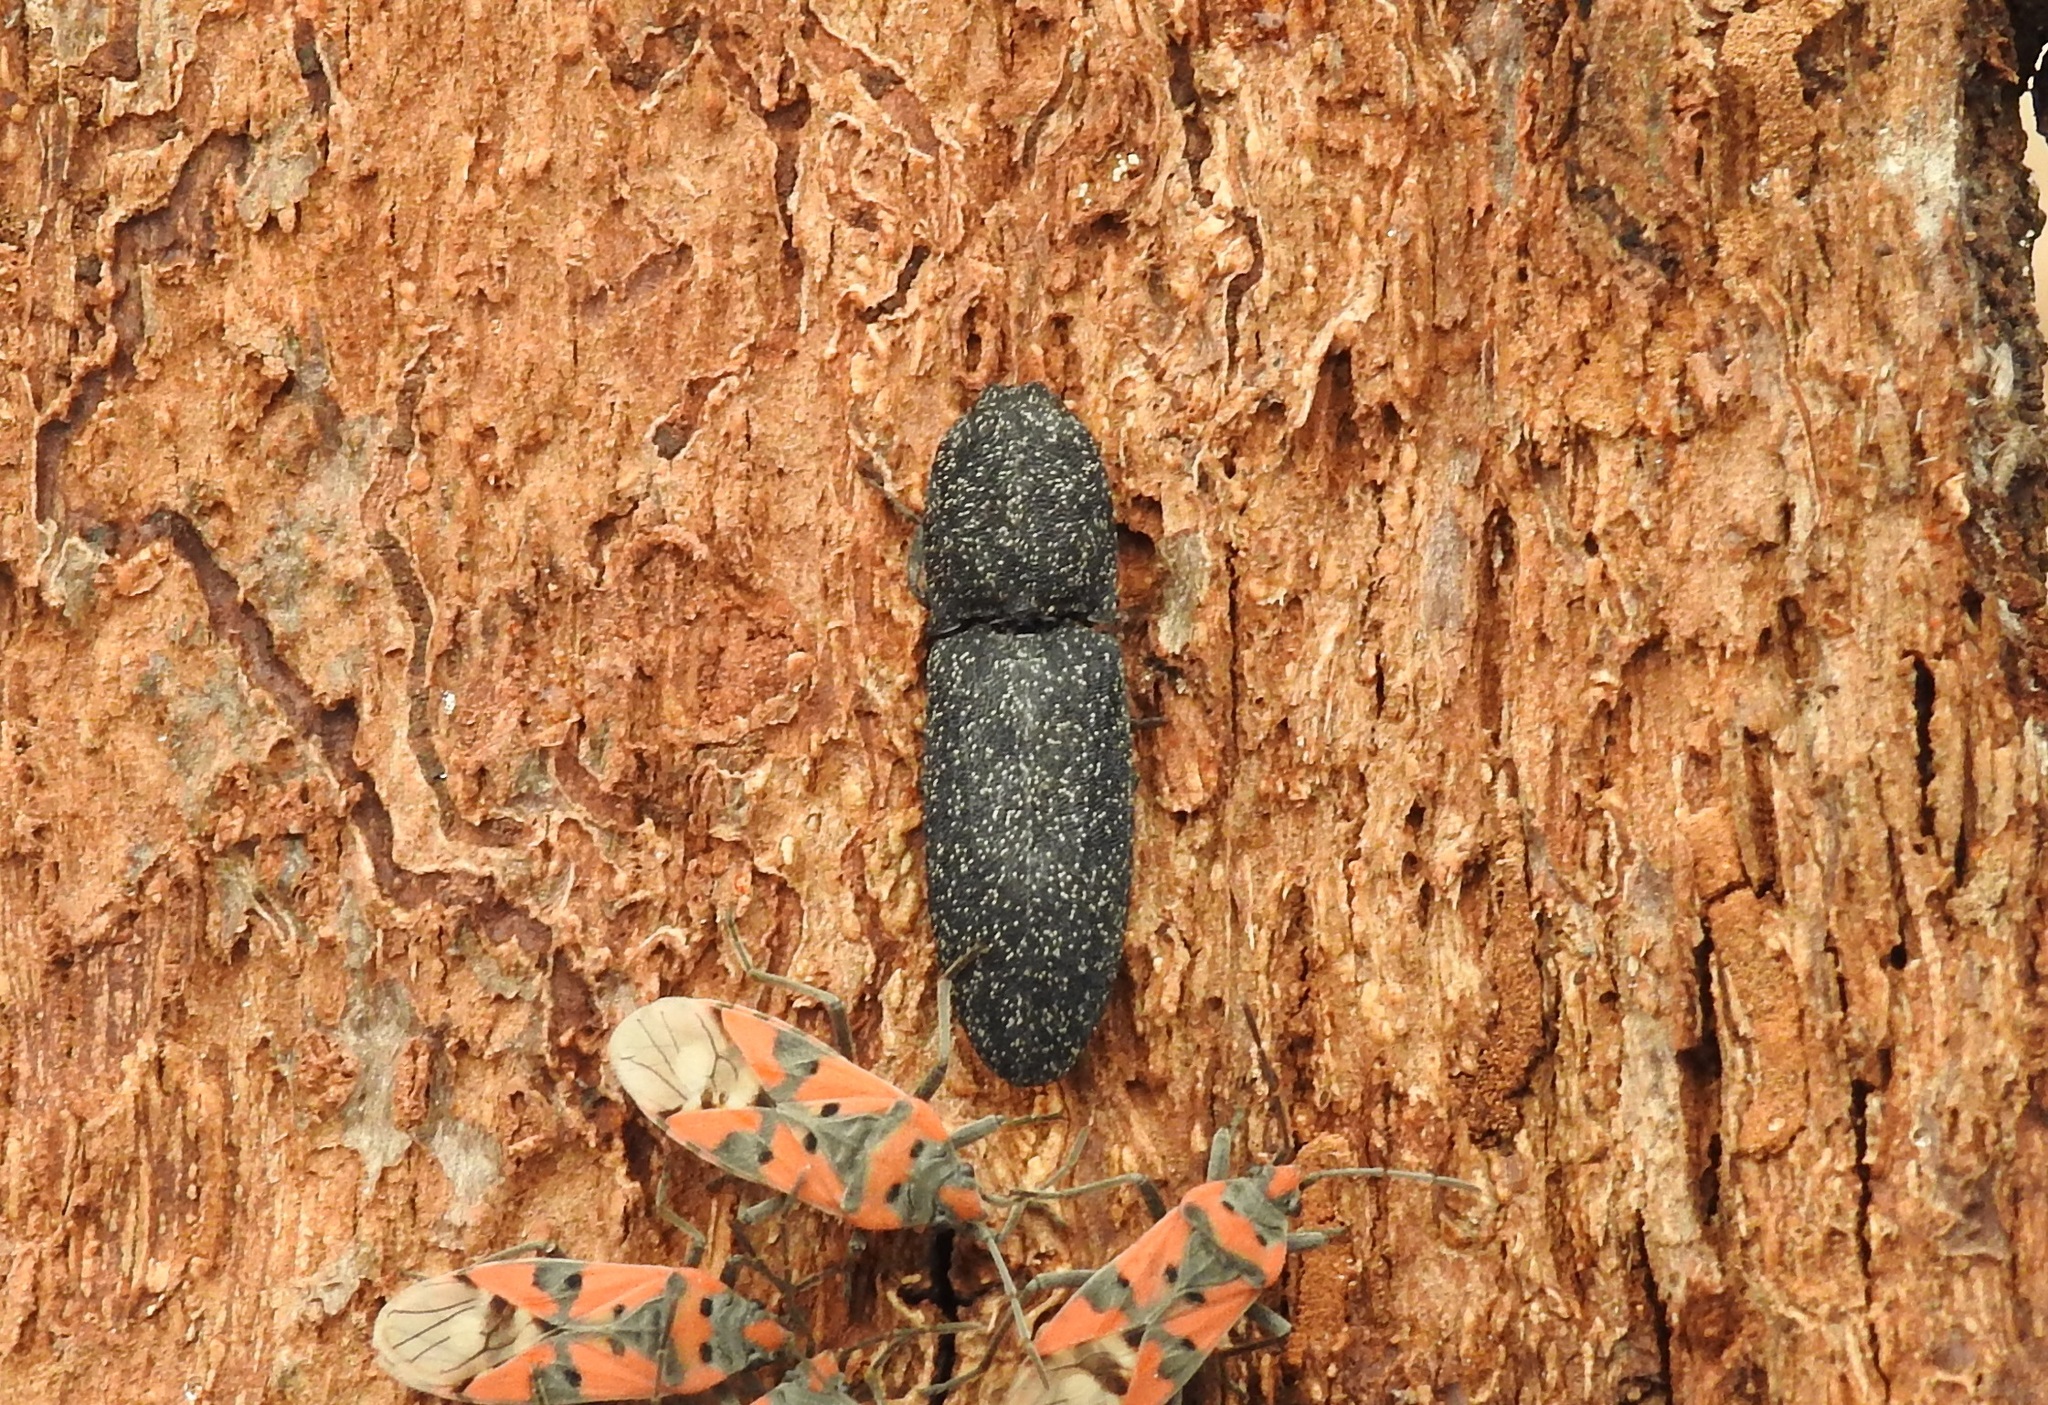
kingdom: Animalia
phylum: Arthropoda
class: Insecta
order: Coleoptera
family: Elateridae
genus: Lacon
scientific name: Lacon punctatus
